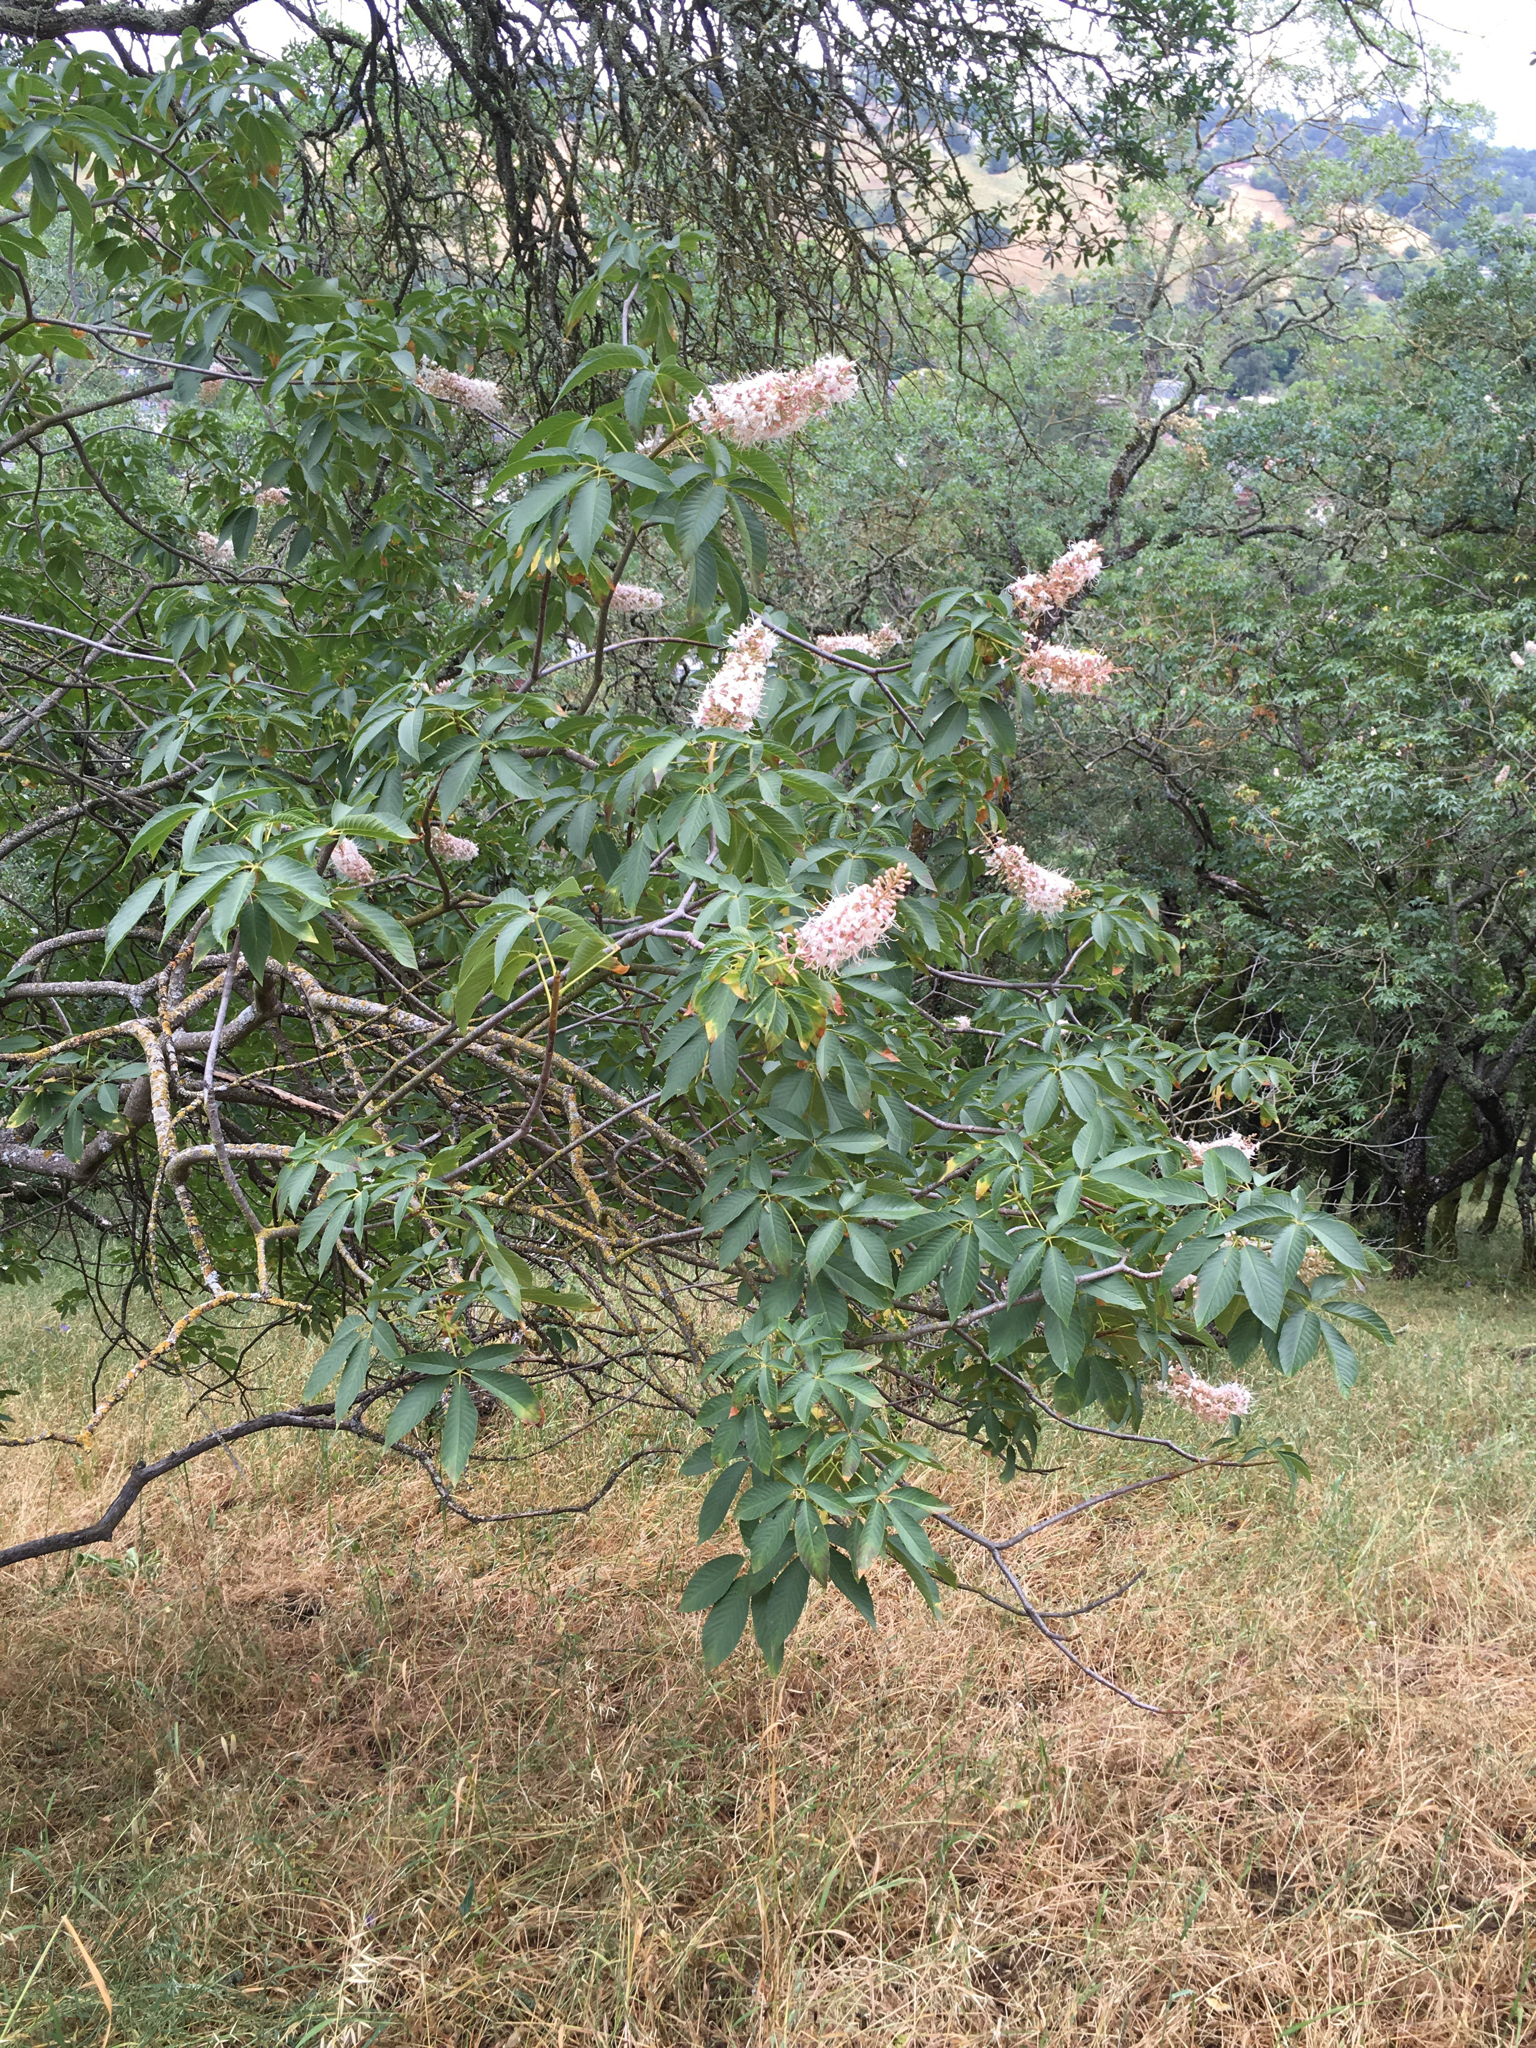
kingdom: Plantae
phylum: Tracheophyta
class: Magnoliopsida
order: Sapindales
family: Sapindaceae
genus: Aesculus
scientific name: Aesculus californica
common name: California buckeye
